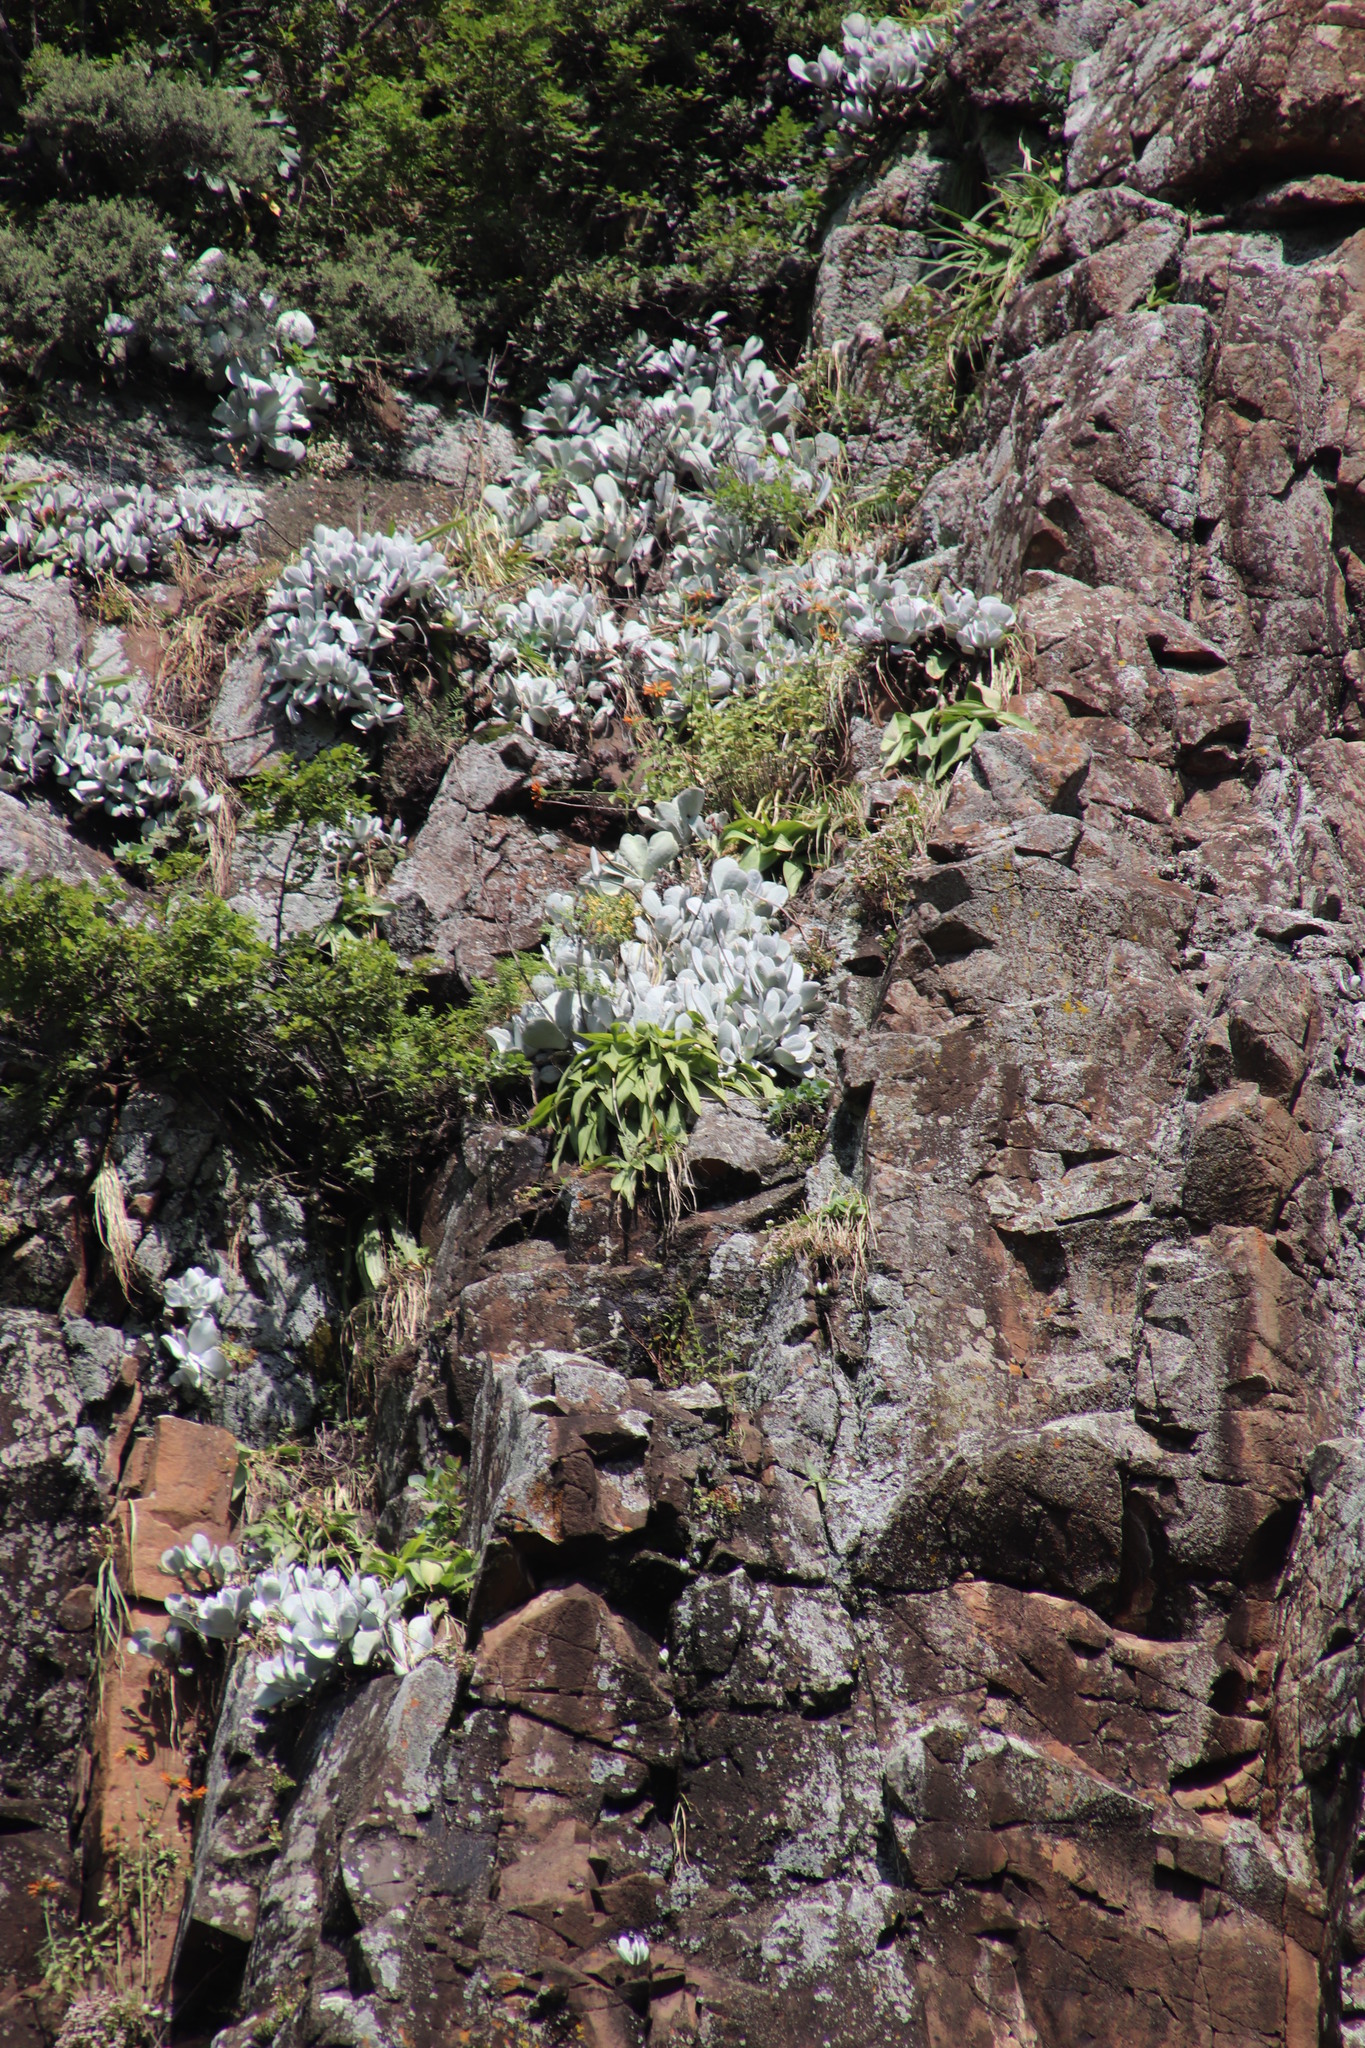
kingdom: Plantae
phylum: Tracheophyta
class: Magnoliopsida
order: Asterales
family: Asteraceae
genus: Helichrysum
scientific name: Helichrysum sutherlandii
